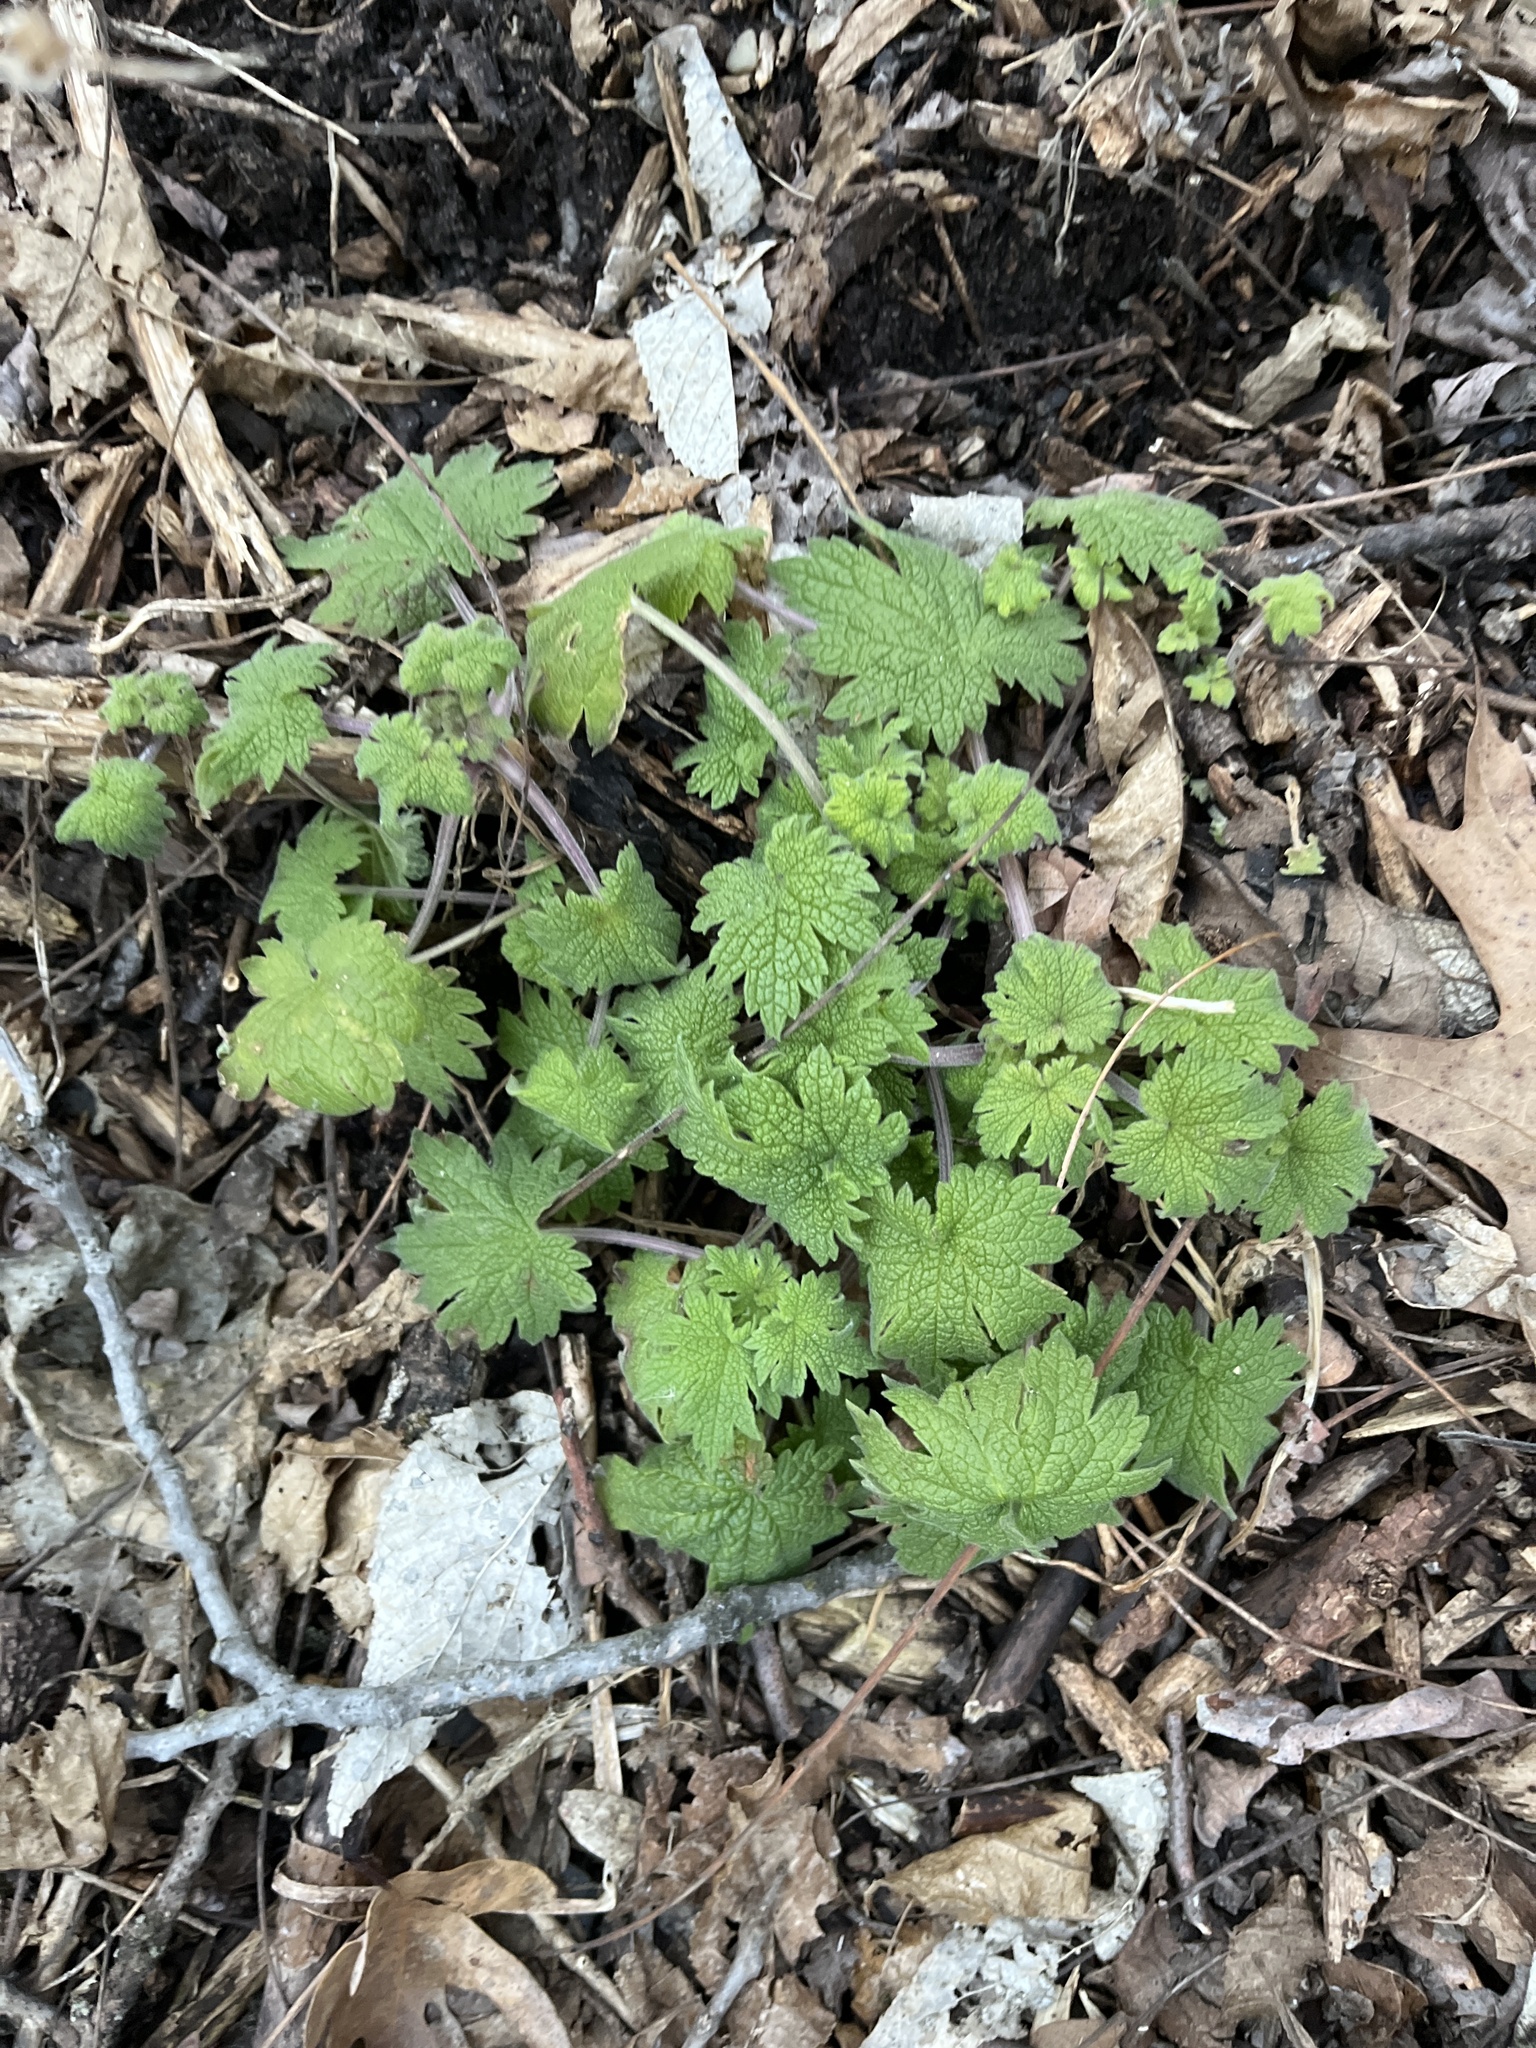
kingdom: Plantae
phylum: Tracheophyta
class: Magnoliopsida
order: Lamiales
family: Lamiaceae
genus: Leonurus
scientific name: Leonurus cardiaca
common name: Motherwort
